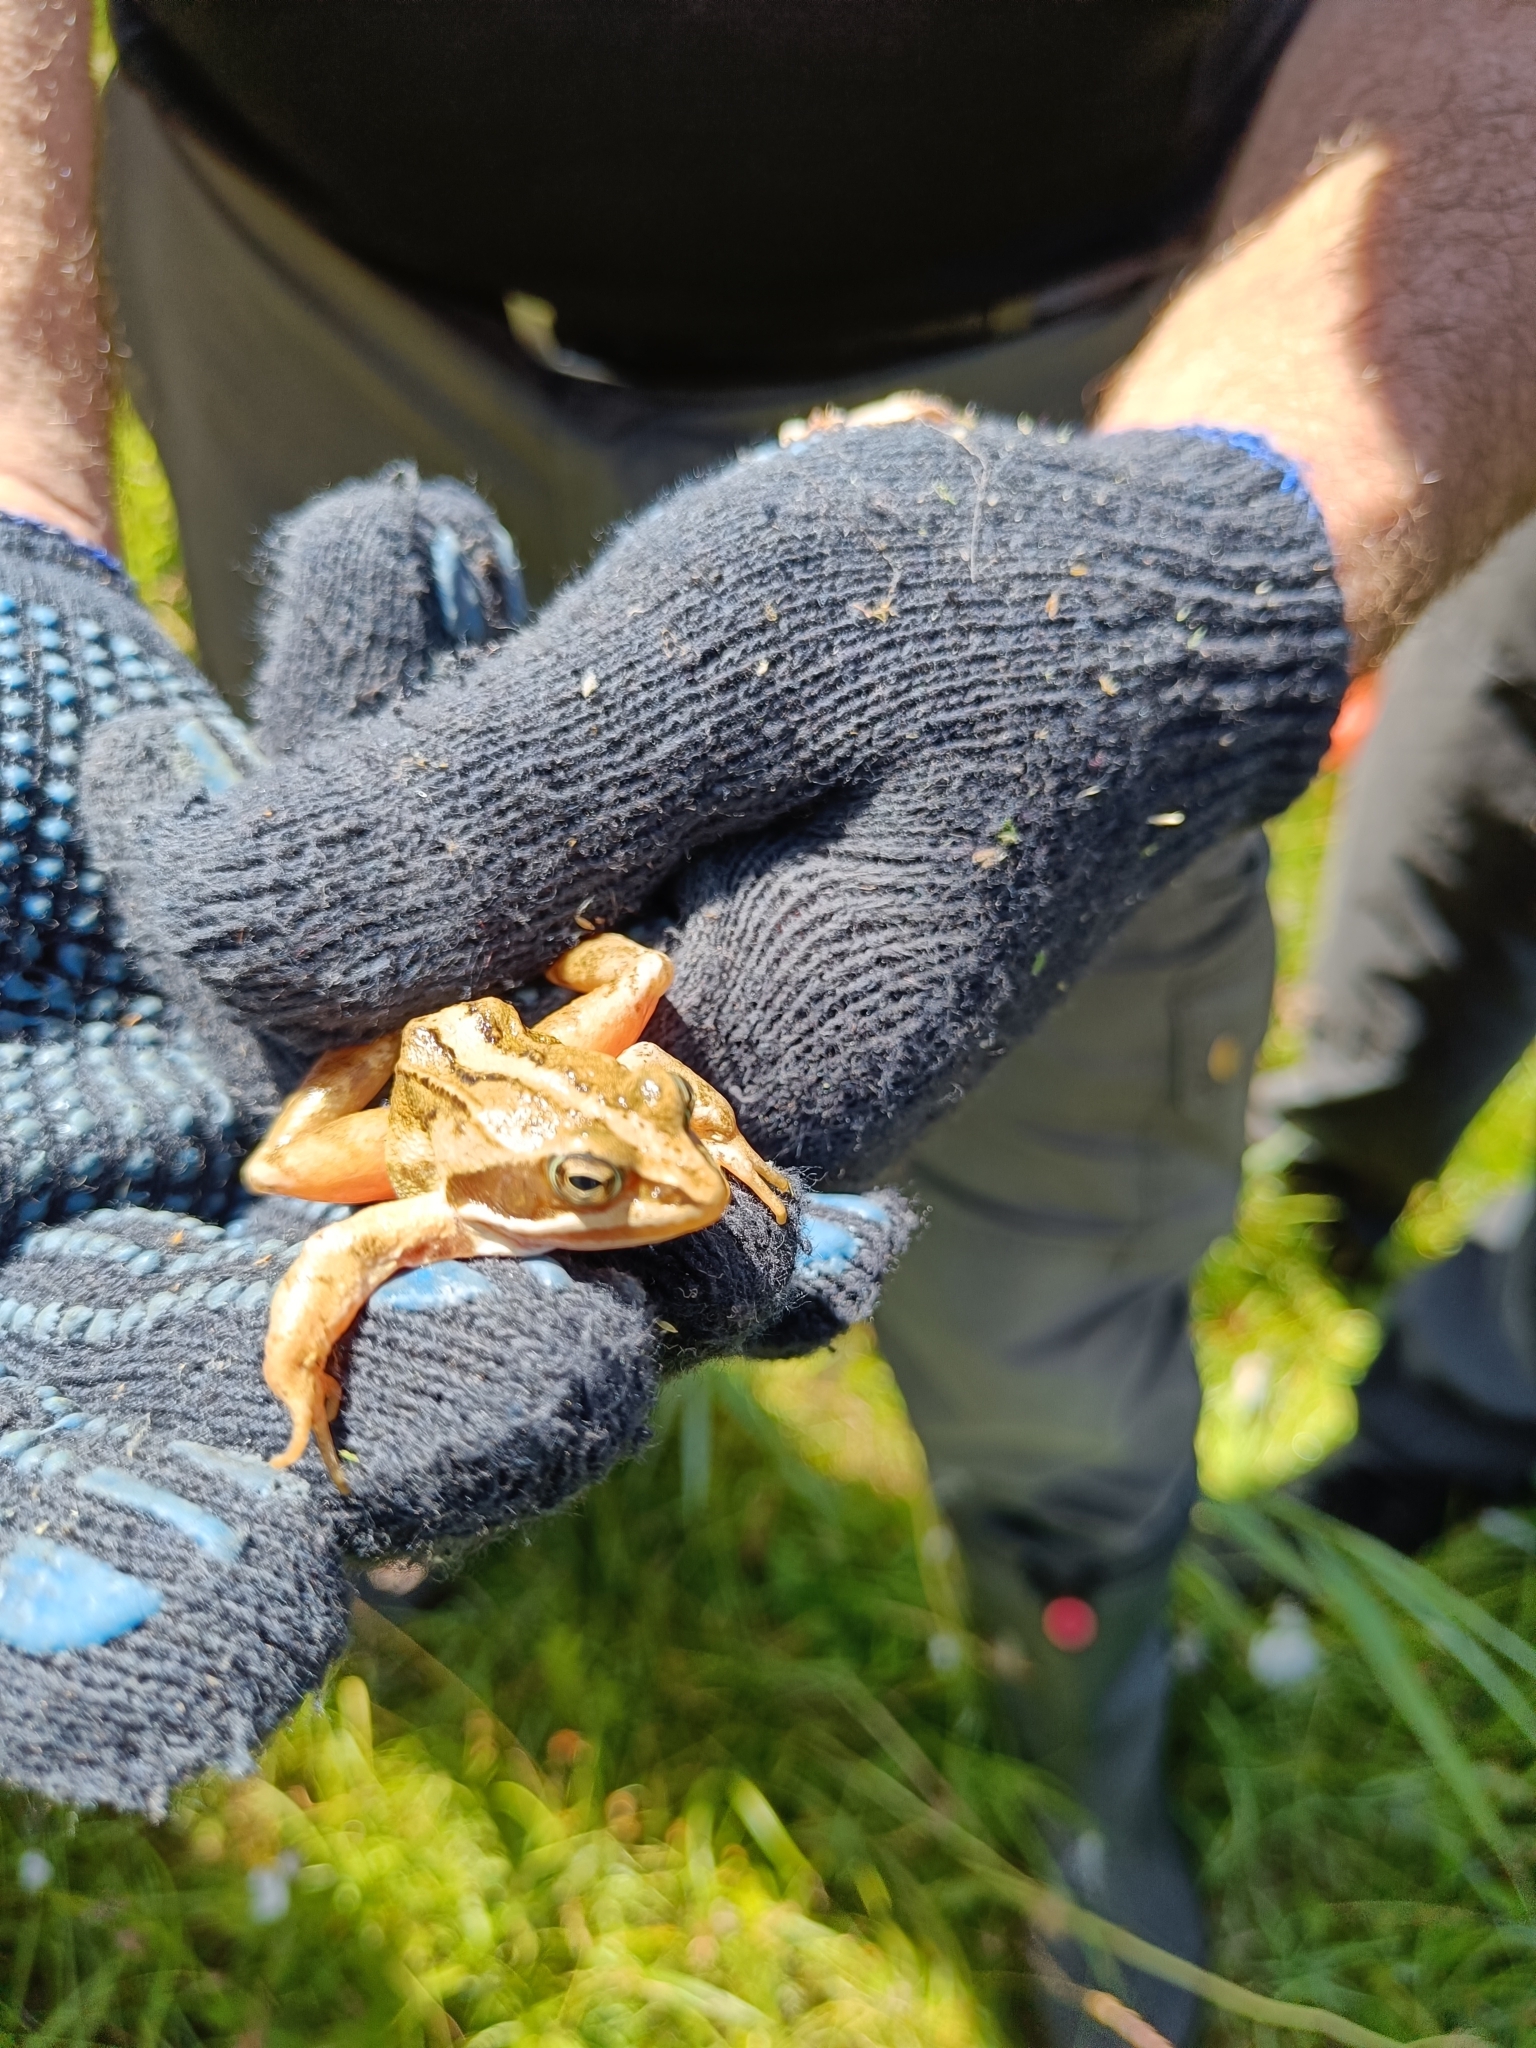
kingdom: Animalia
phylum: Chordata
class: Amphibia
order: Anura
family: Ranidae
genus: Rana
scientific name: Rana arvalis
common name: Moor frog
